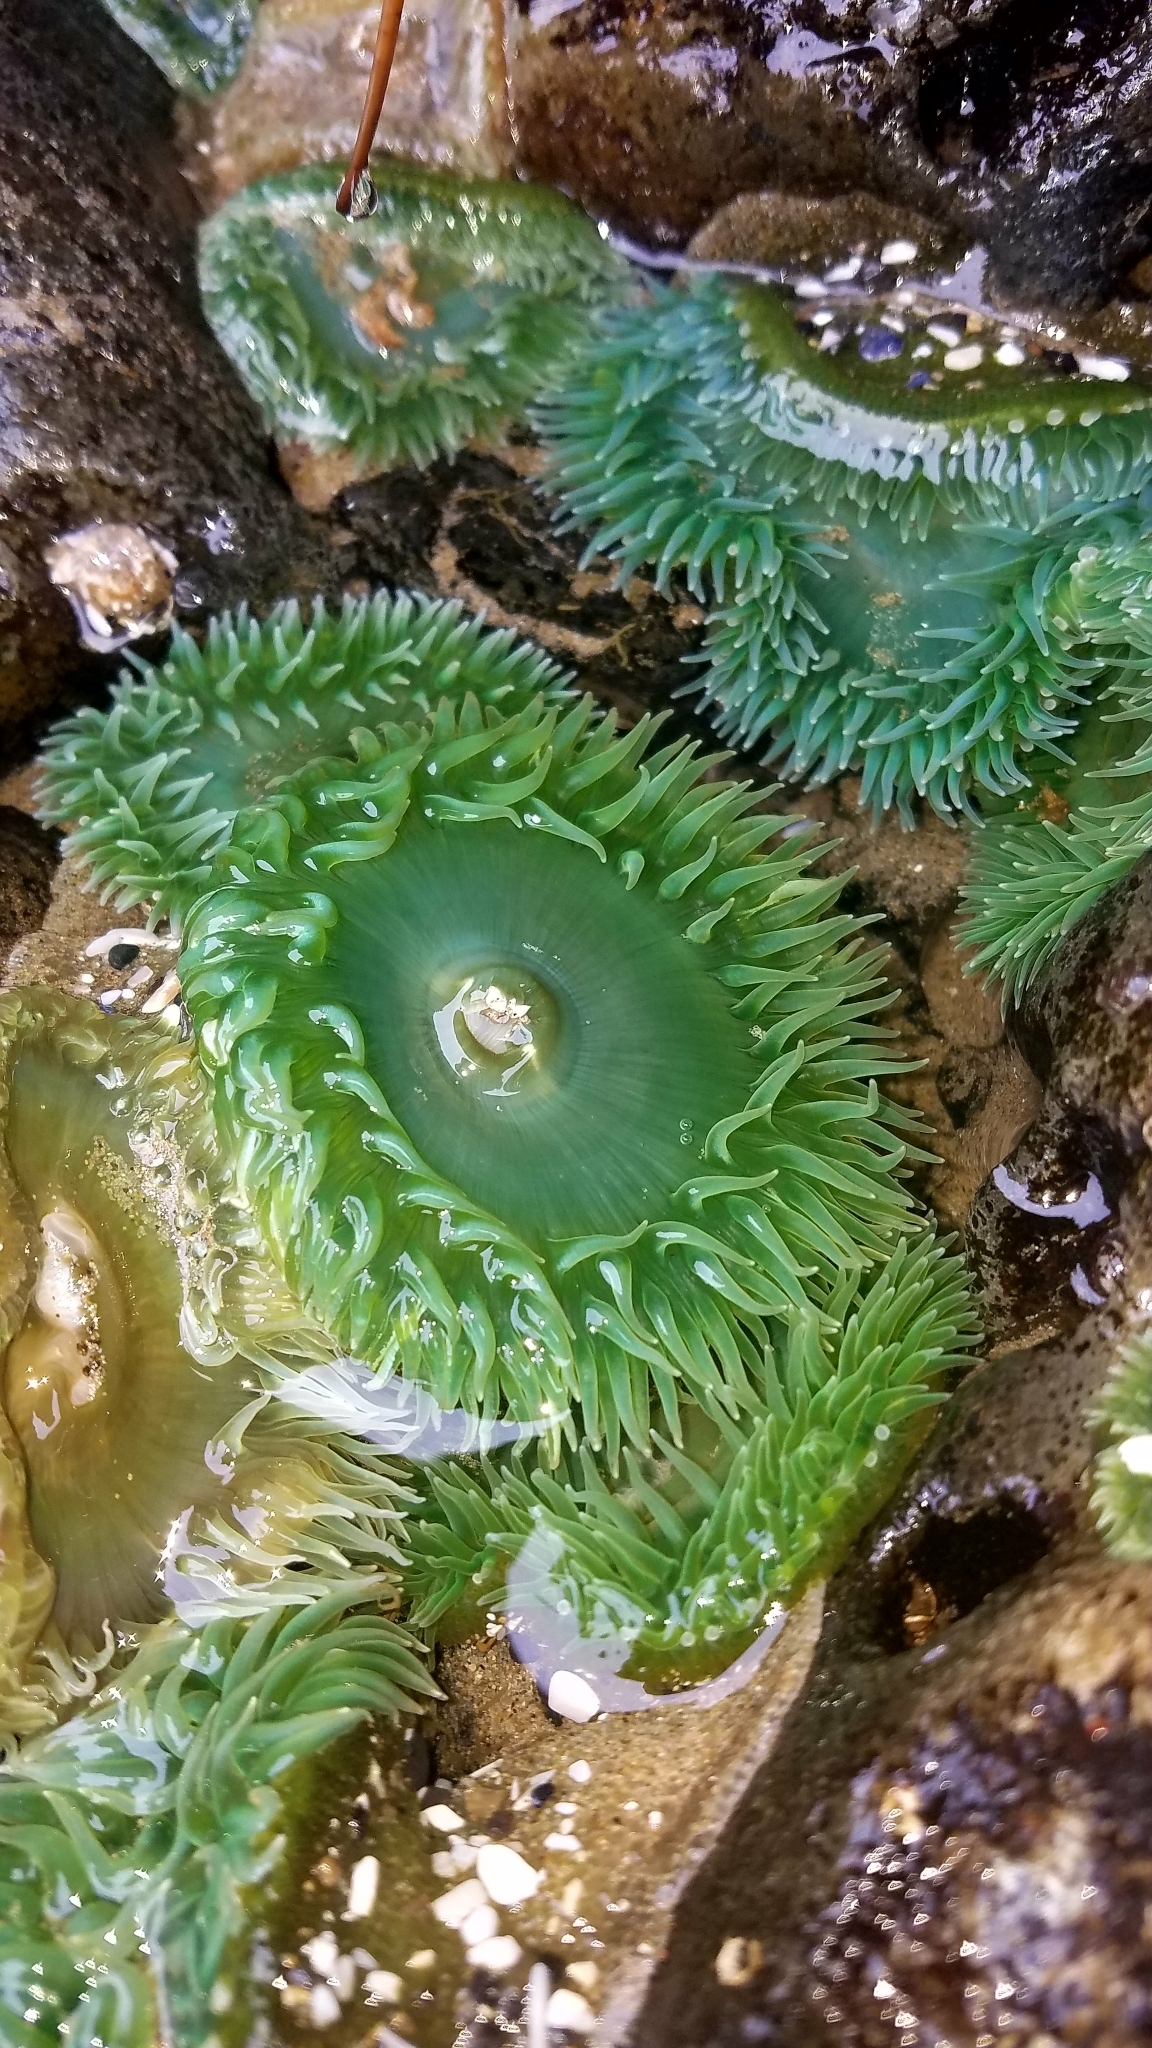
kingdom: Animalia
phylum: Cnidaria
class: Anthozoa
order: Actiniaria
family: Actiniidae
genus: Anthopleura
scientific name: Anthopleura xanthogrammica
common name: Giant green anemone
